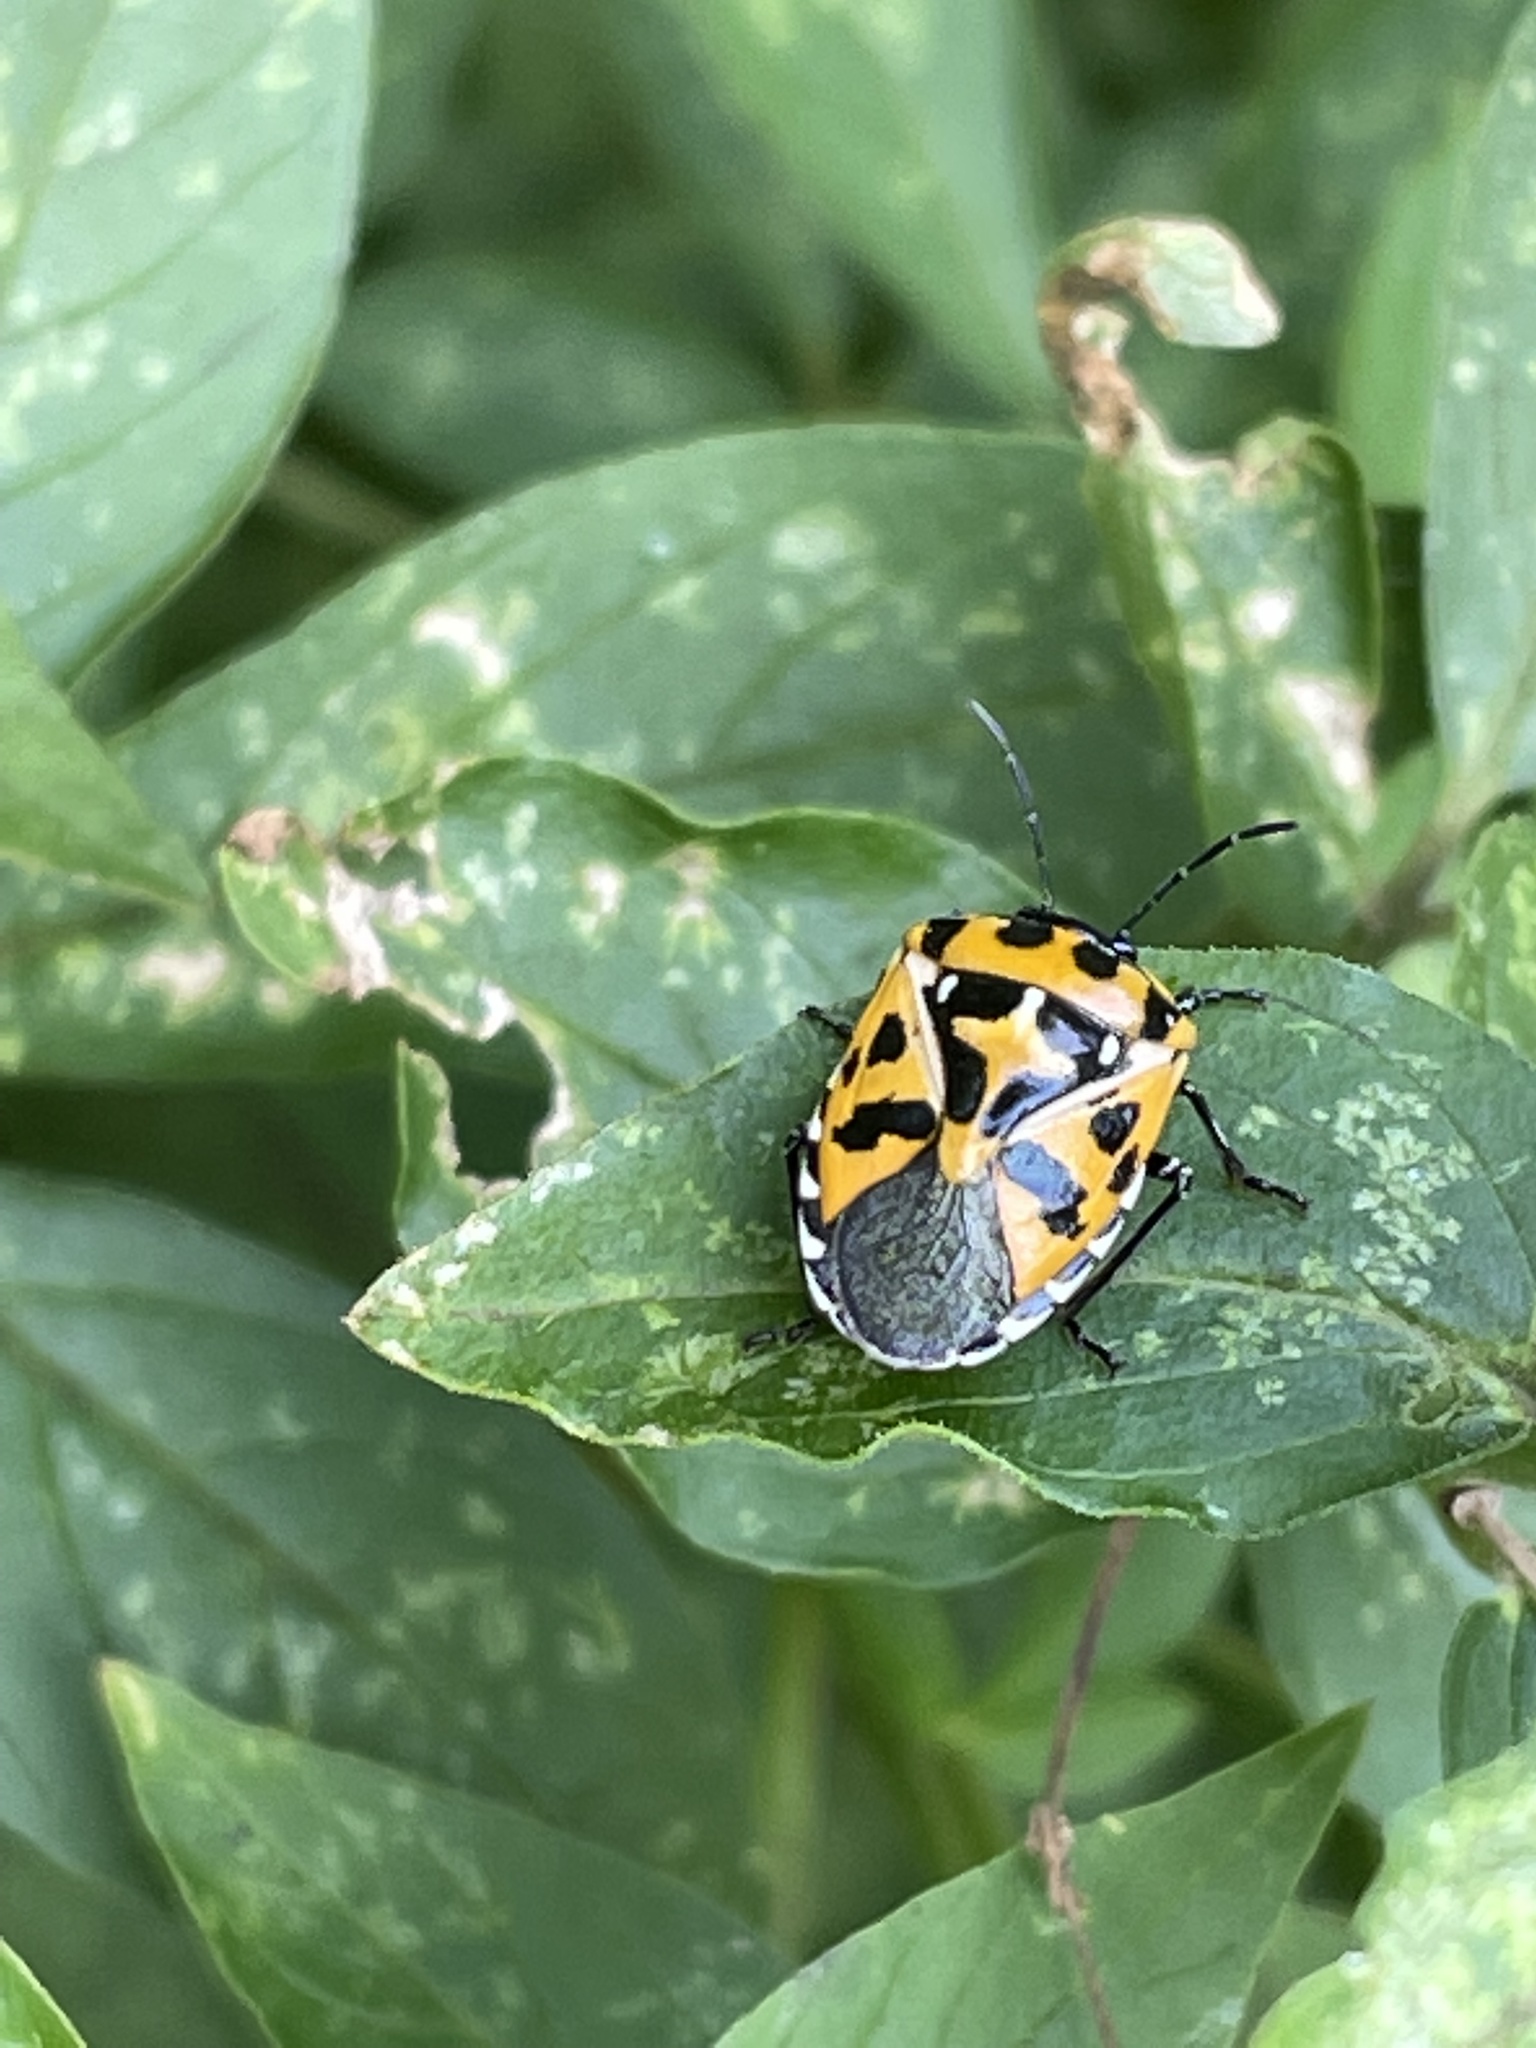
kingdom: Animalia
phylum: Arthropoda
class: Insecta
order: Hemiptera
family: Pentatomidae
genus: Murgantia
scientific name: Murgantia histrionica
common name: Harlequin bug
